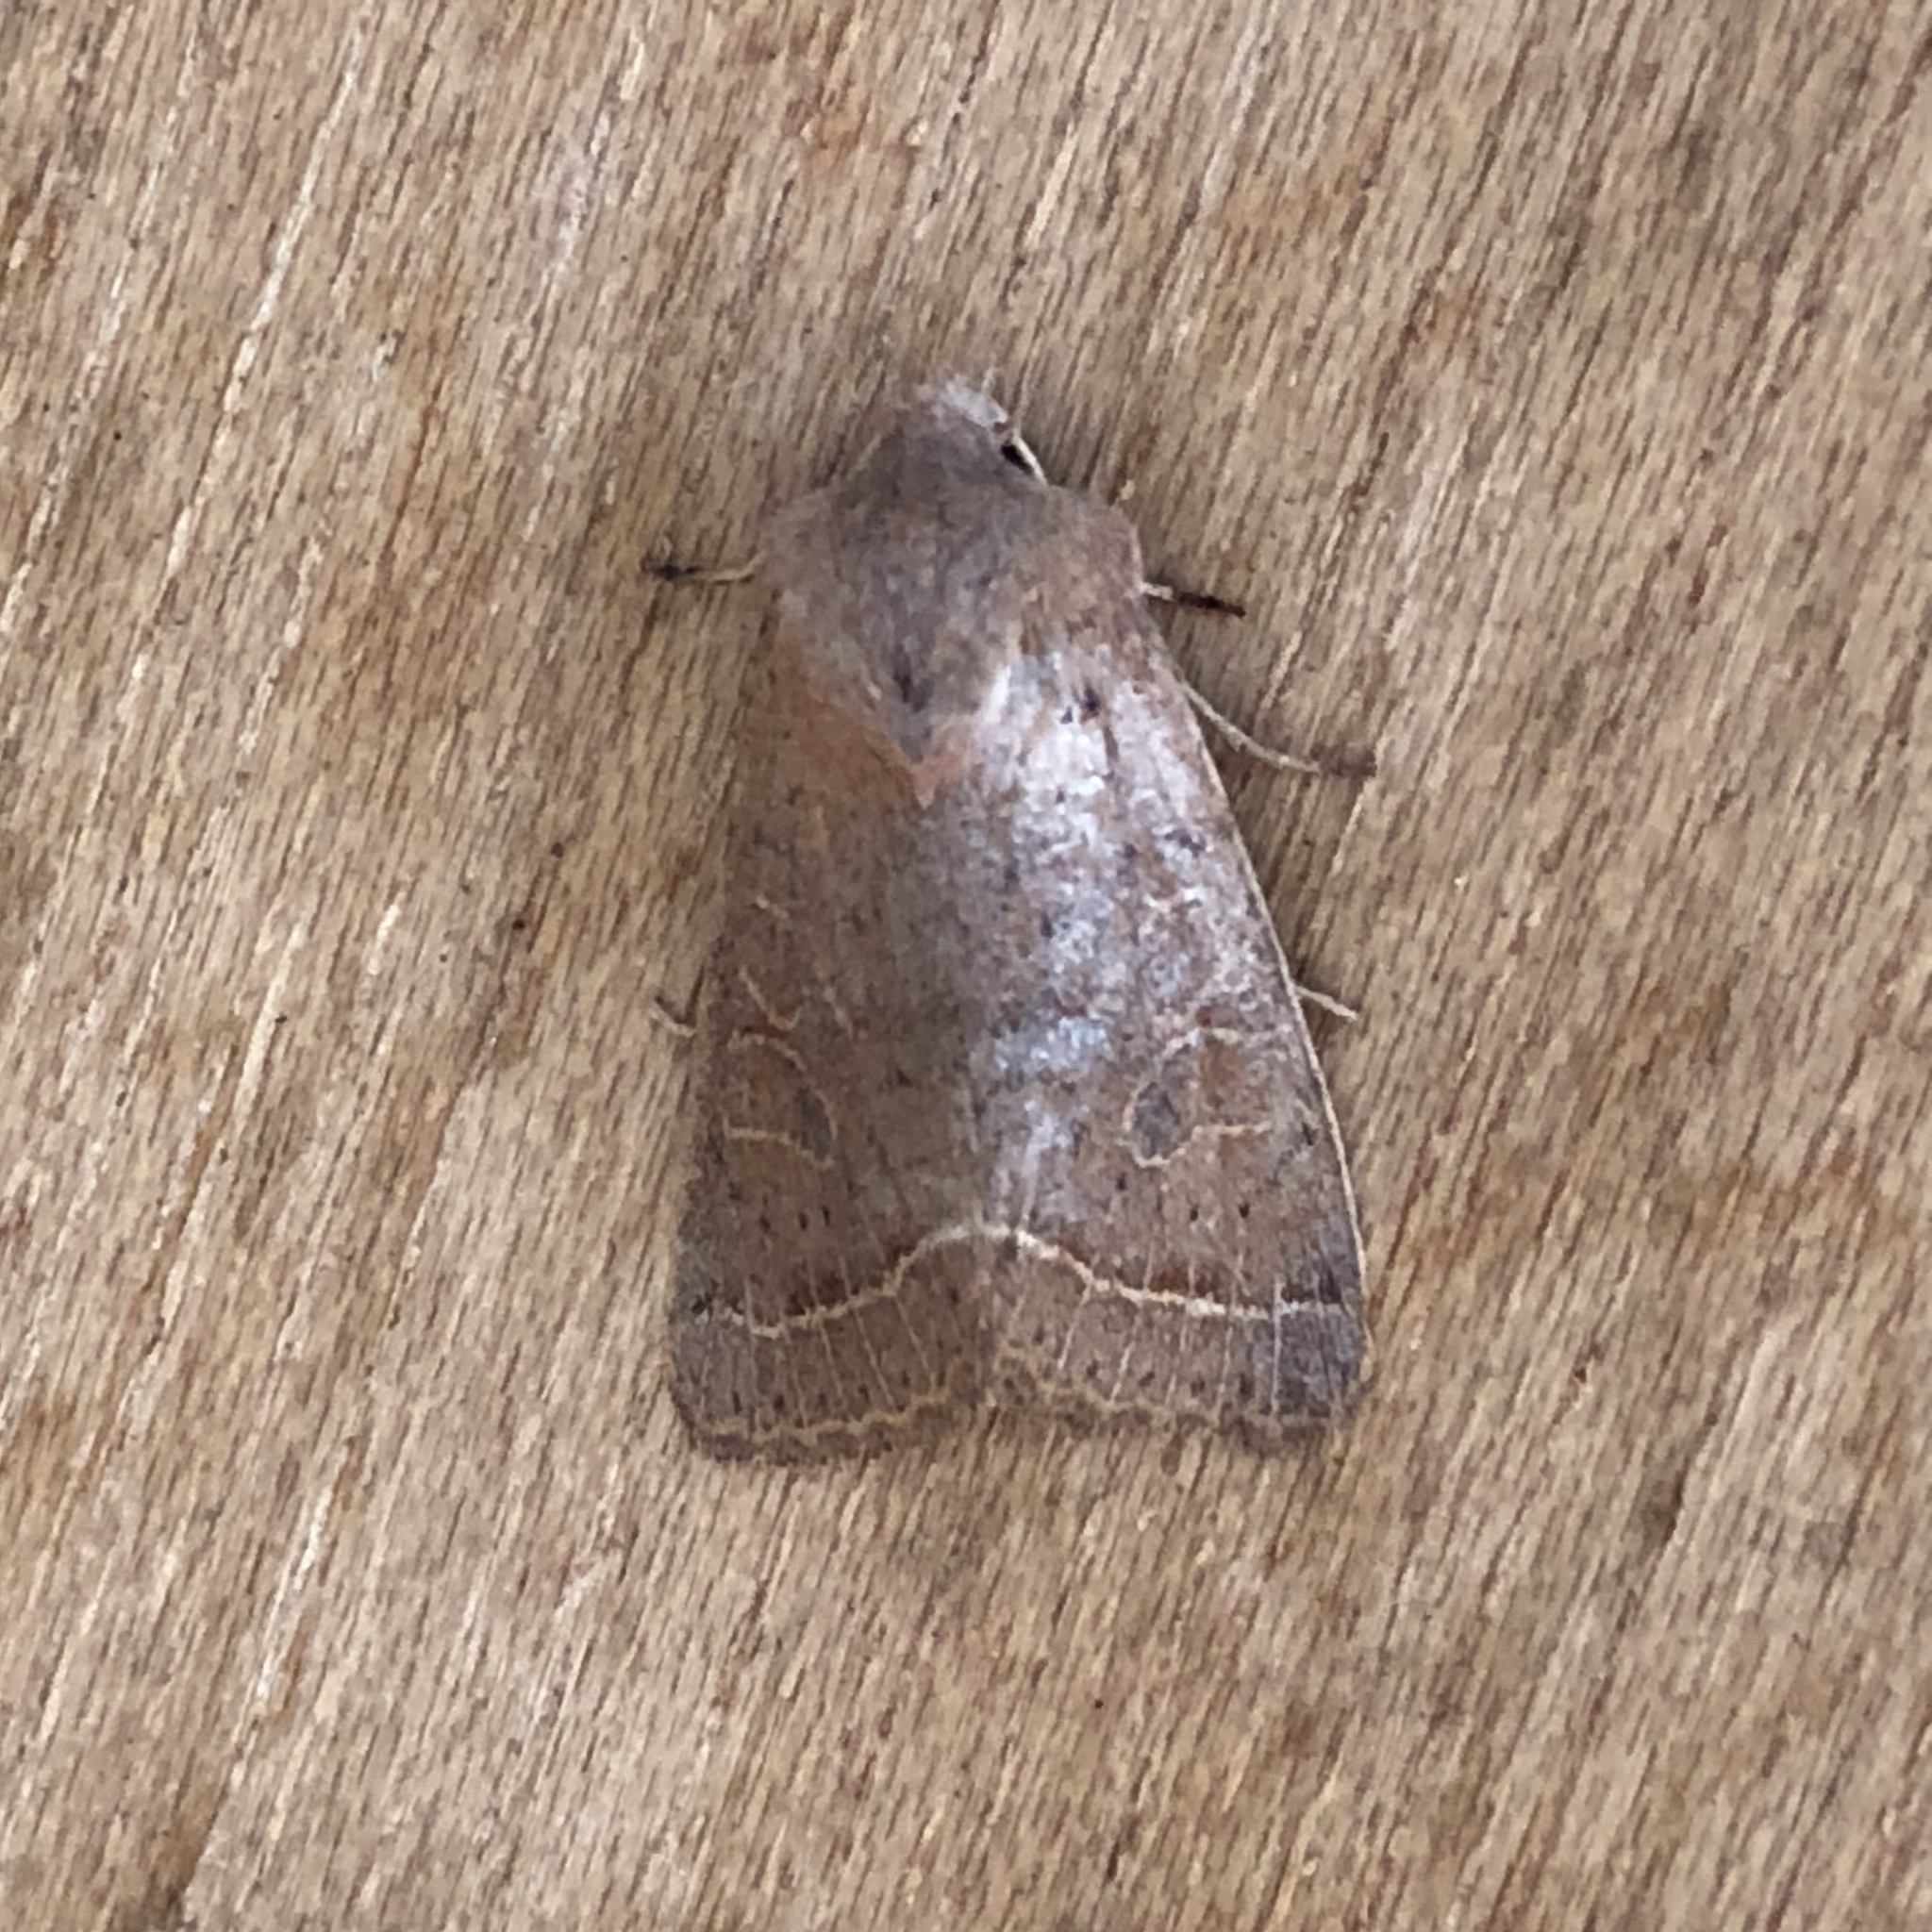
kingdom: Animalia
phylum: Arthropoda
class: Insecta
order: Lepidoptera
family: Noctuidae
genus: Orthosia
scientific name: Orthosia cerasi
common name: Common quaker
